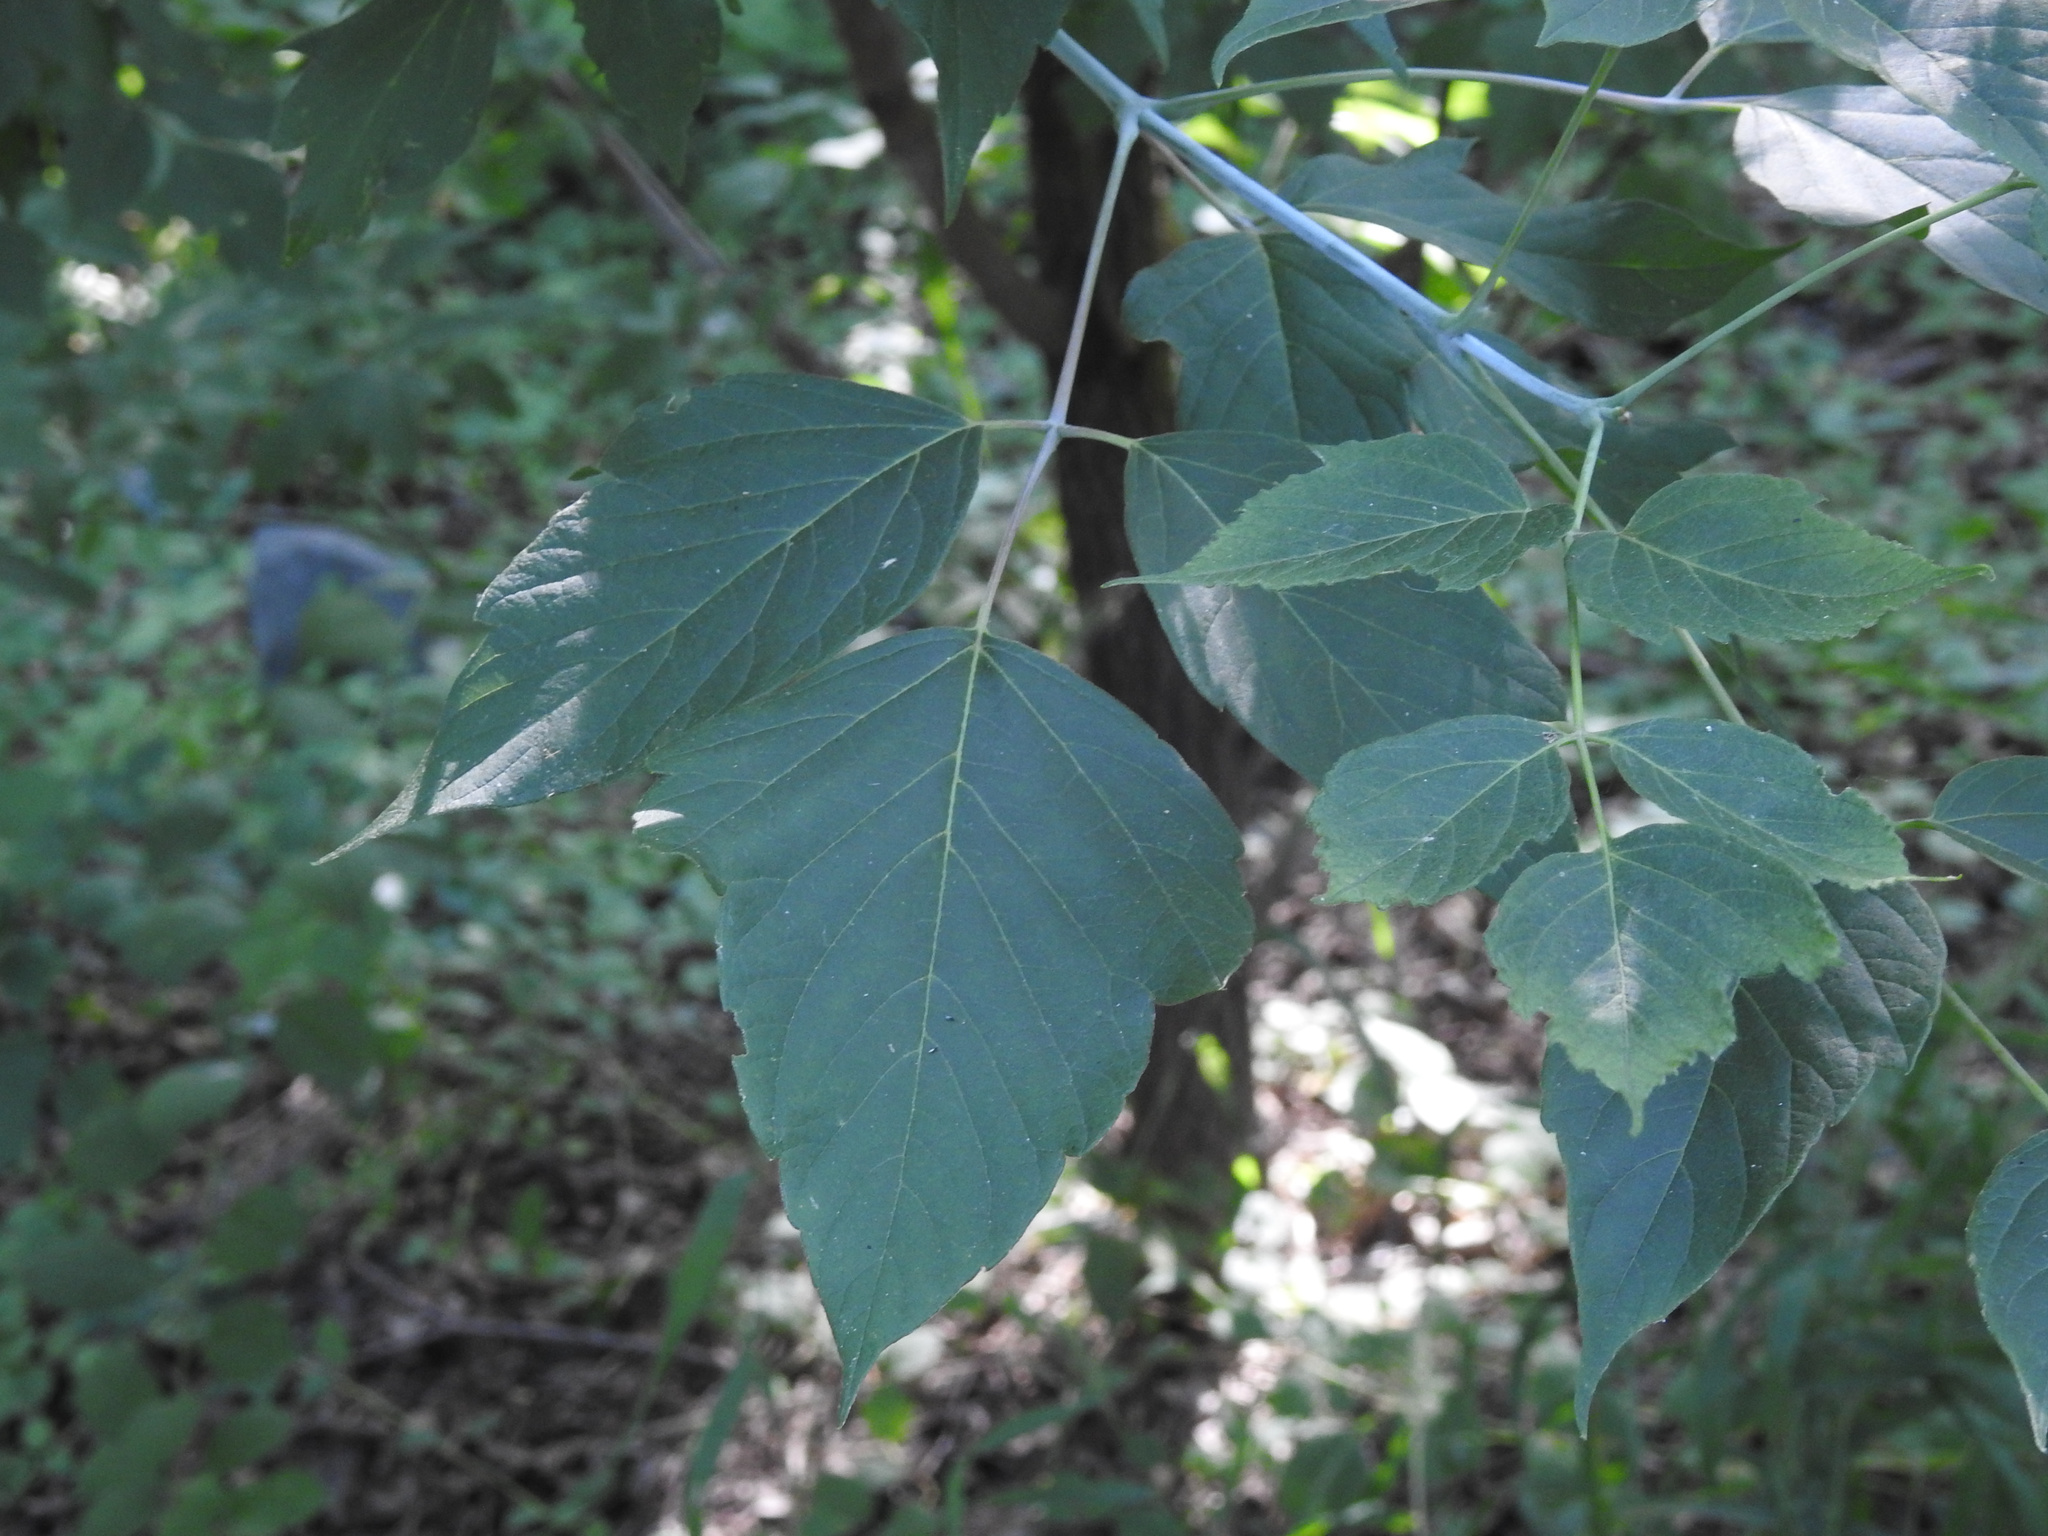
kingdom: Plantae
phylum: Tracheophyta
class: Magnoliopsida
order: Sapindales
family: Sapindaceae
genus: Acer
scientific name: Acer negundo
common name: Ashleaf maple
